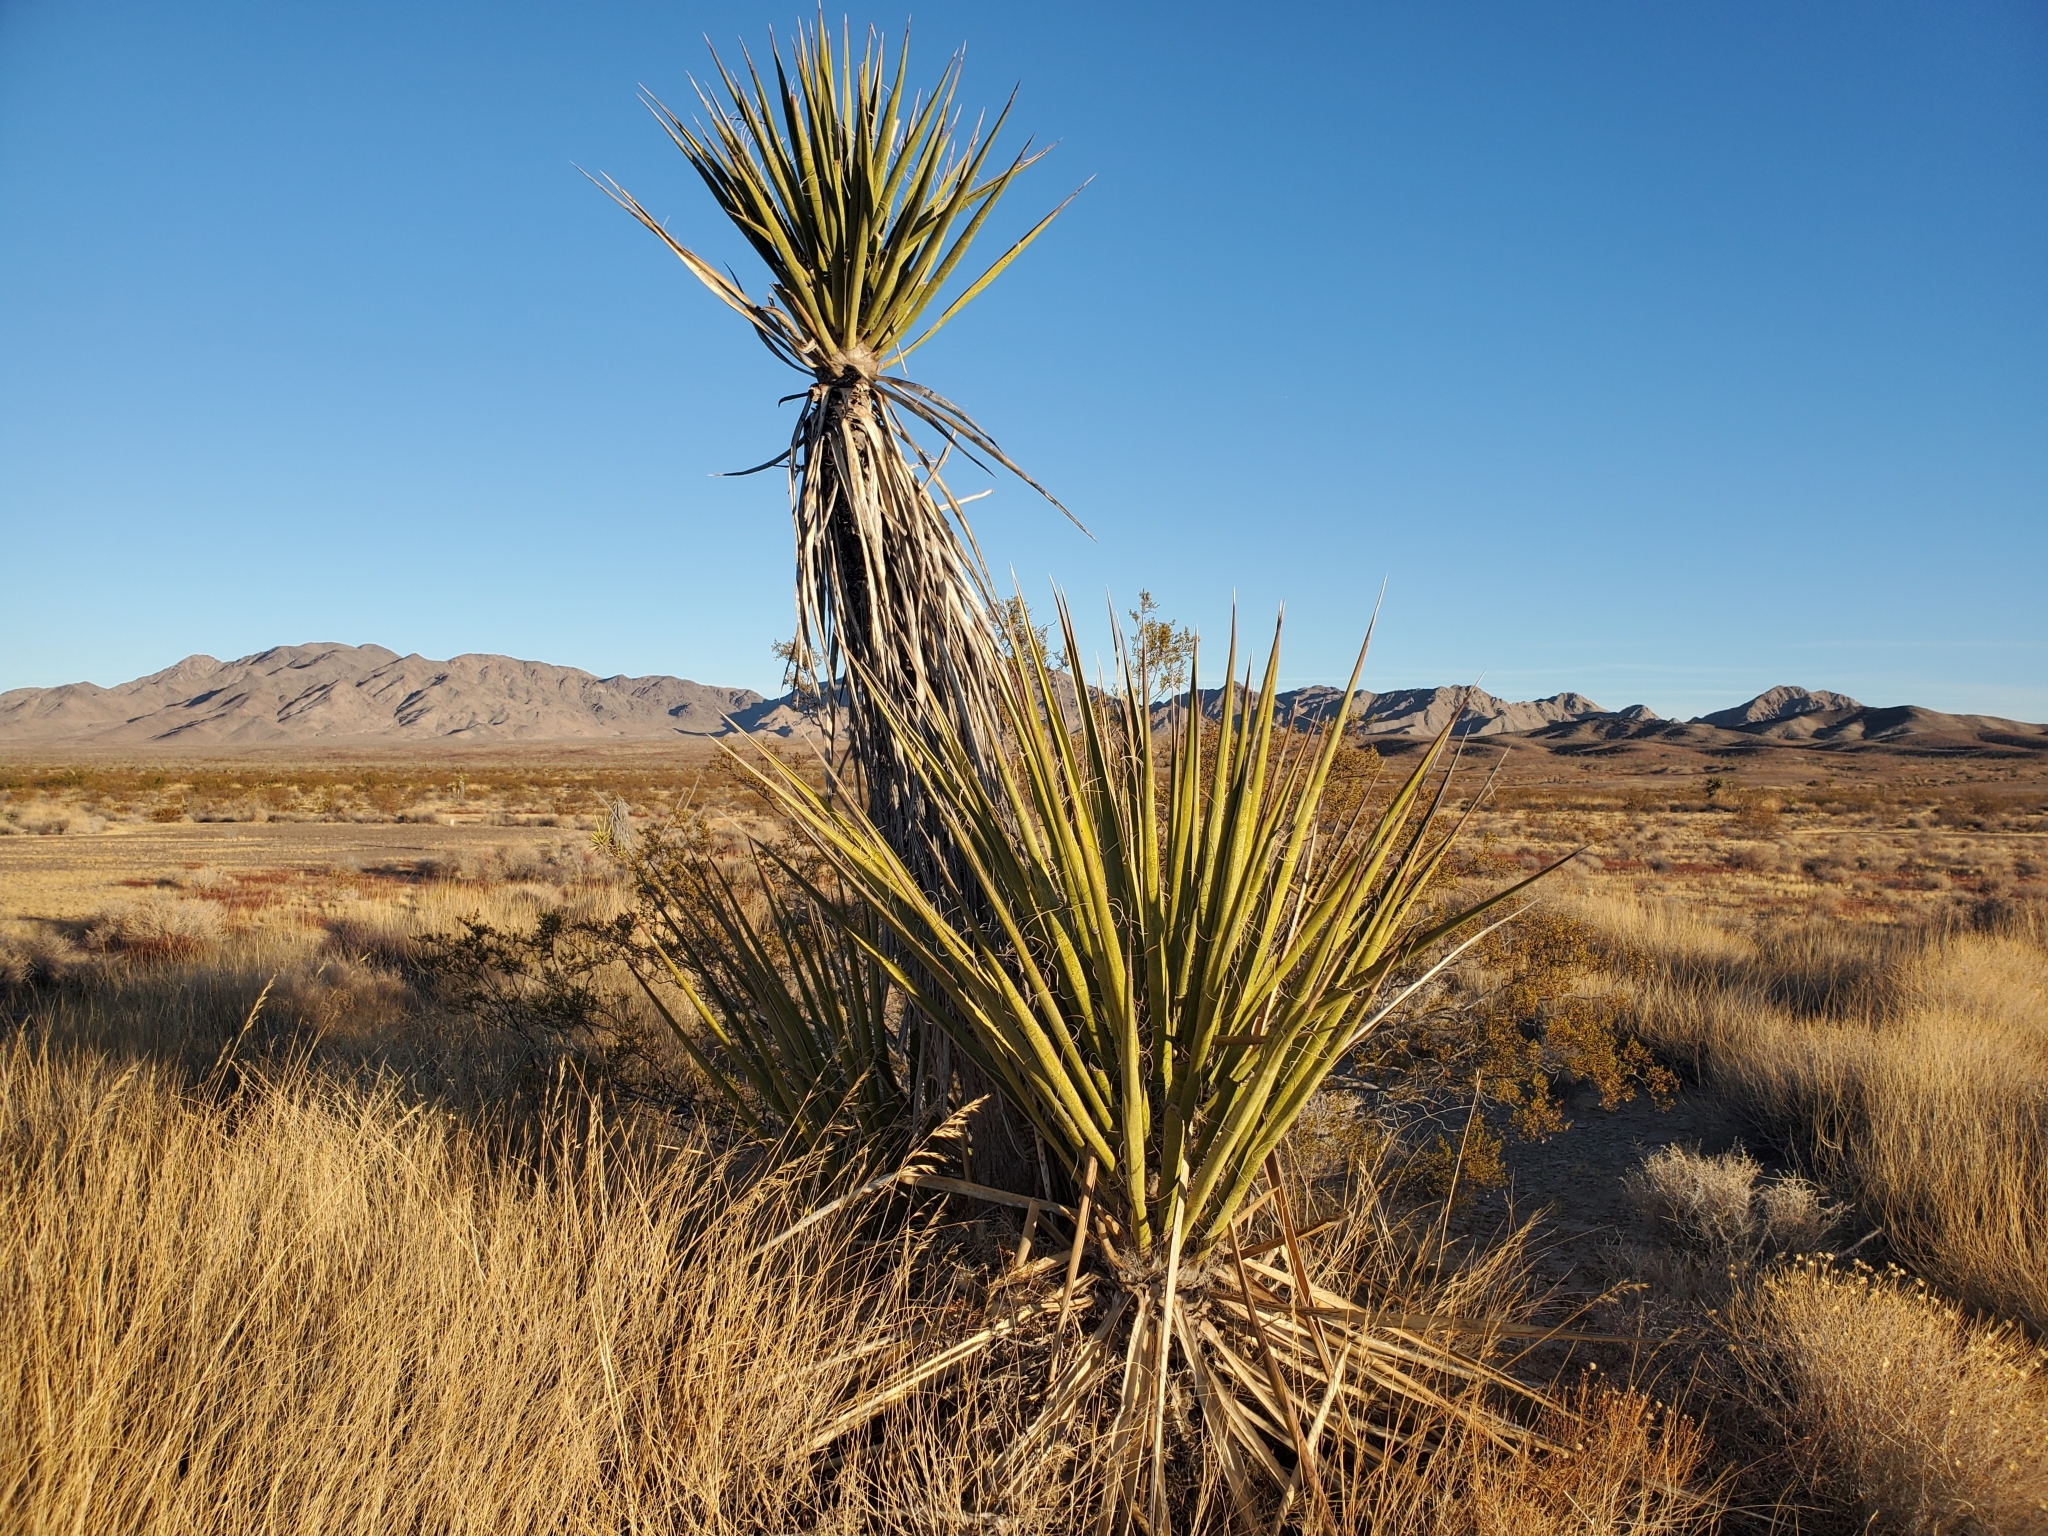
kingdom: Plantae
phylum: Tracheophyta
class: Liliopsida
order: Asparagales
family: Asparagaceae
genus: Yucca
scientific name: Yucca schidigera
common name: Mojave yucca
